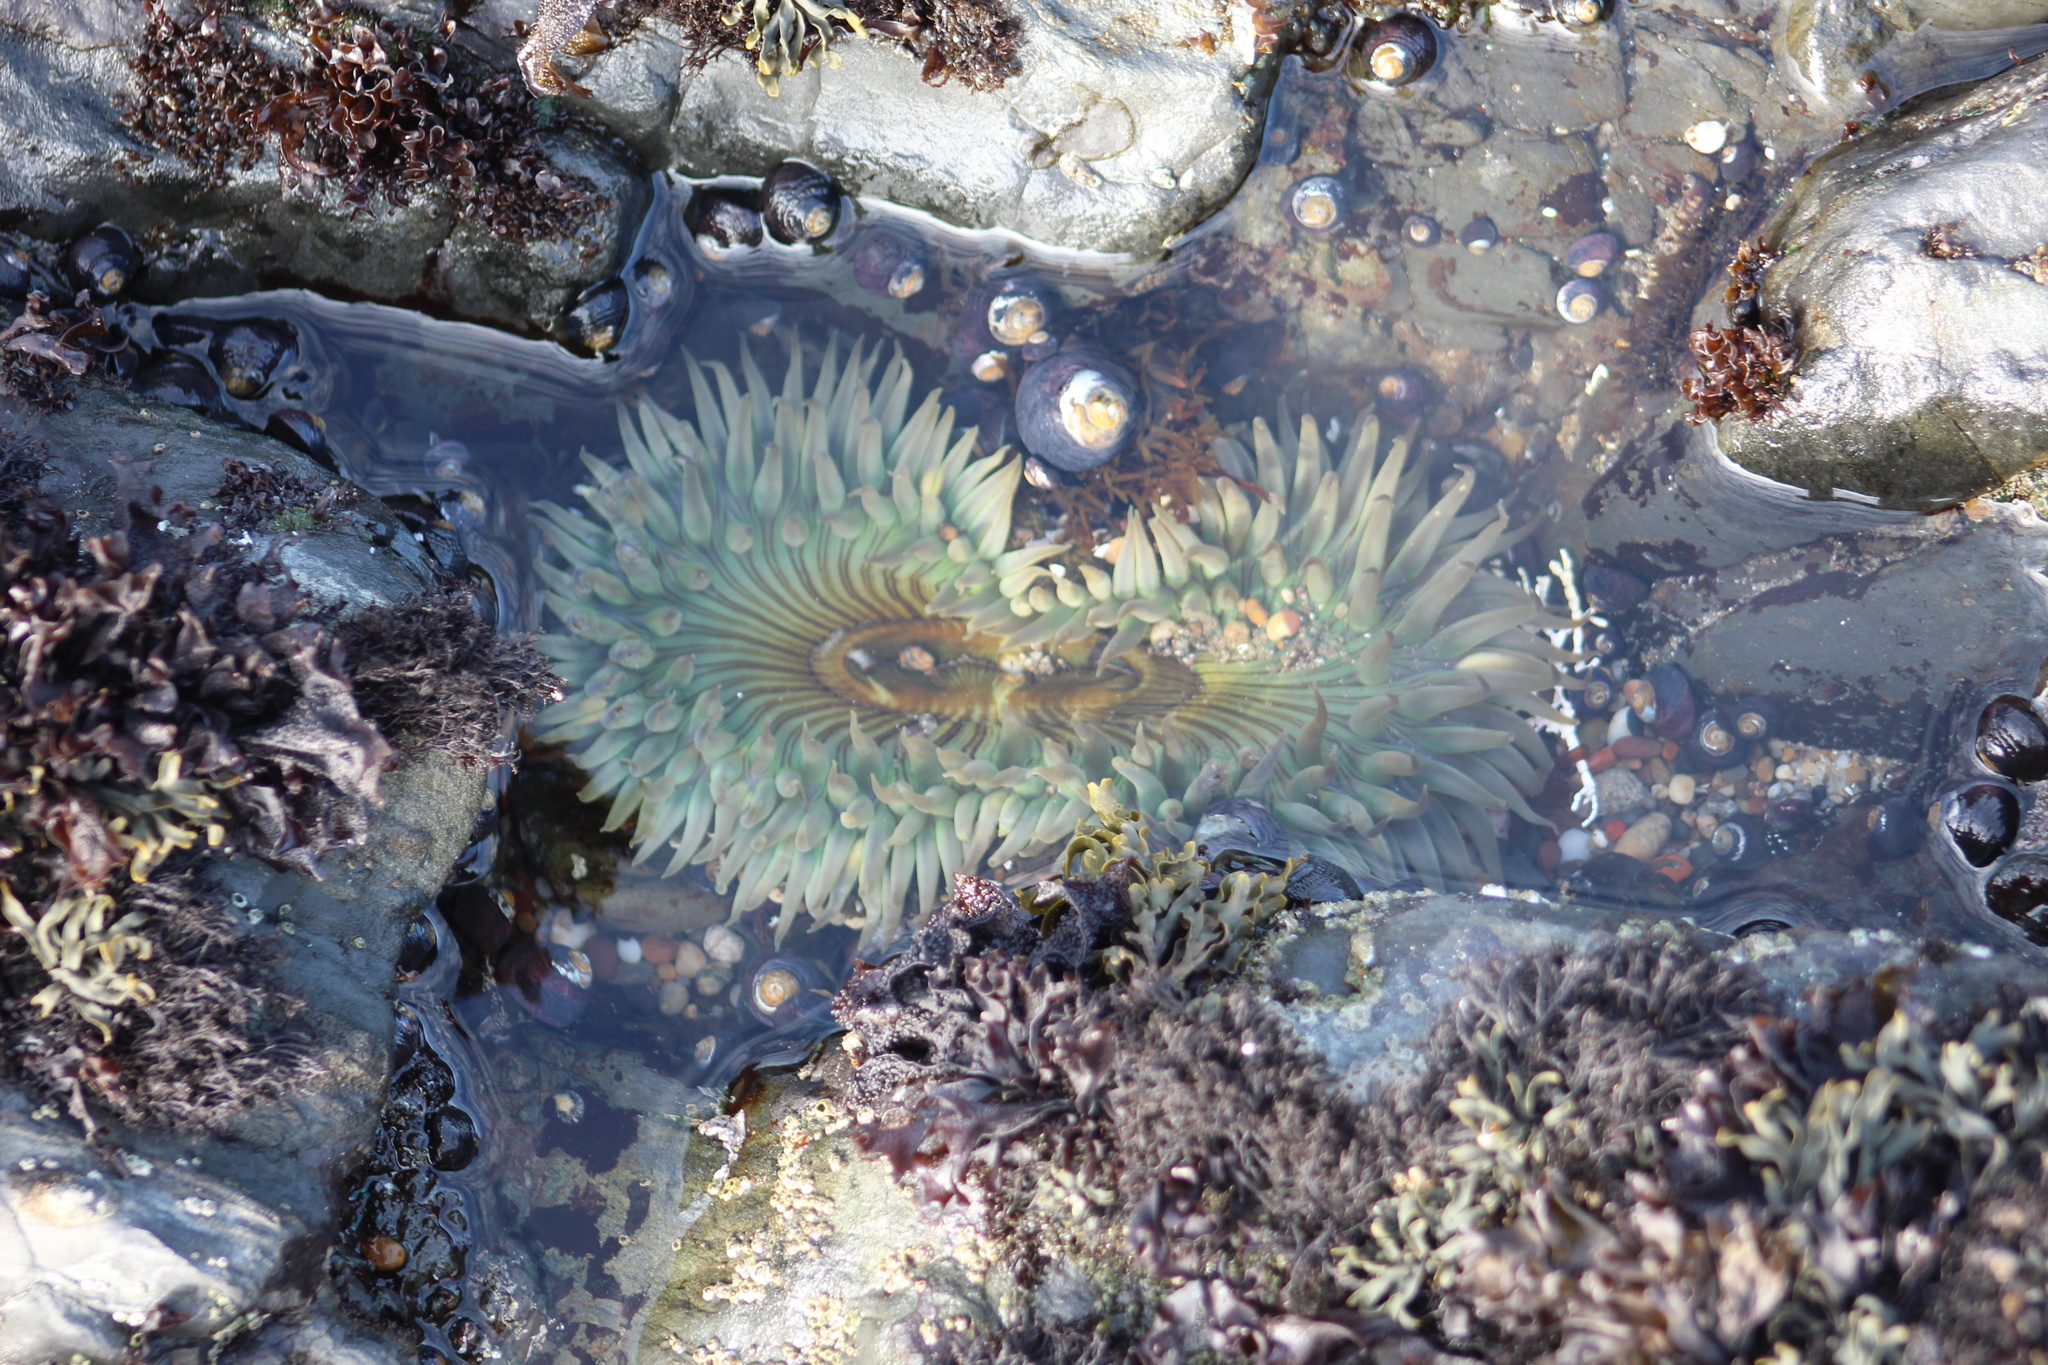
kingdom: Animalia
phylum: Cnidaria
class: Anthozoa
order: Actiniaria
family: Actiniidae
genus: Anthopleura
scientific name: Anthopleura sola
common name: Sun anemone
